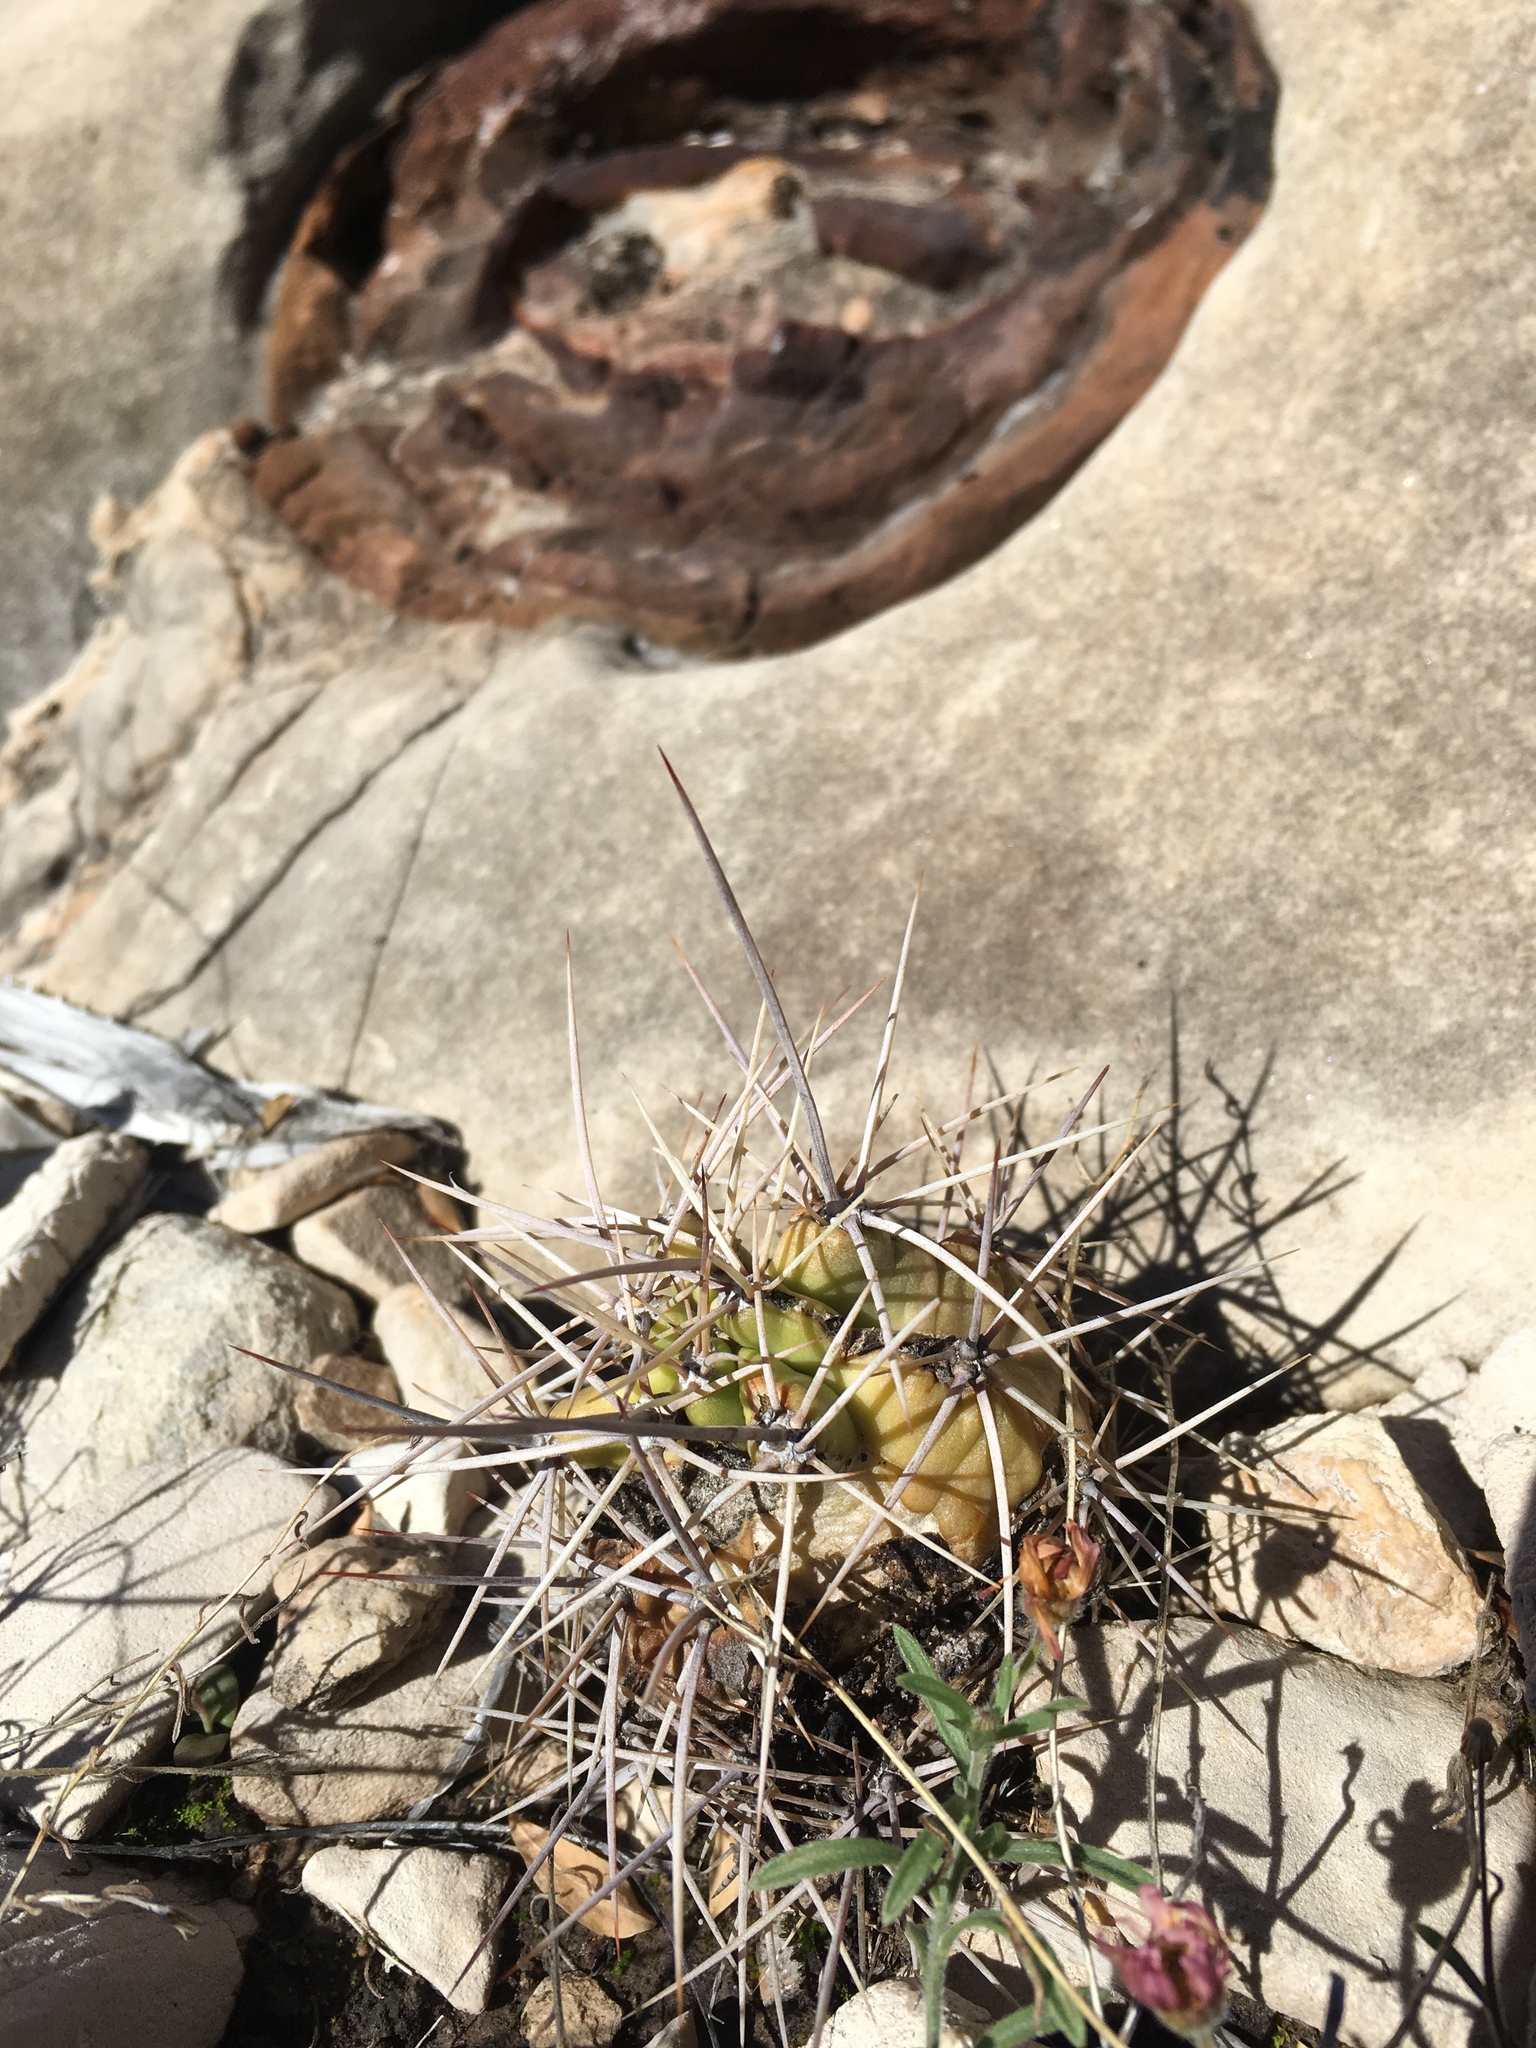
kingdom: Plantae
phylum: Tracheophyta
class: Magnoliopsida
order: Caryophyllales
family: Cactaceae
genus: Echinocereus
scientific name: Echinocereus coccineus
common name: Scarlet hedgehog cactus
